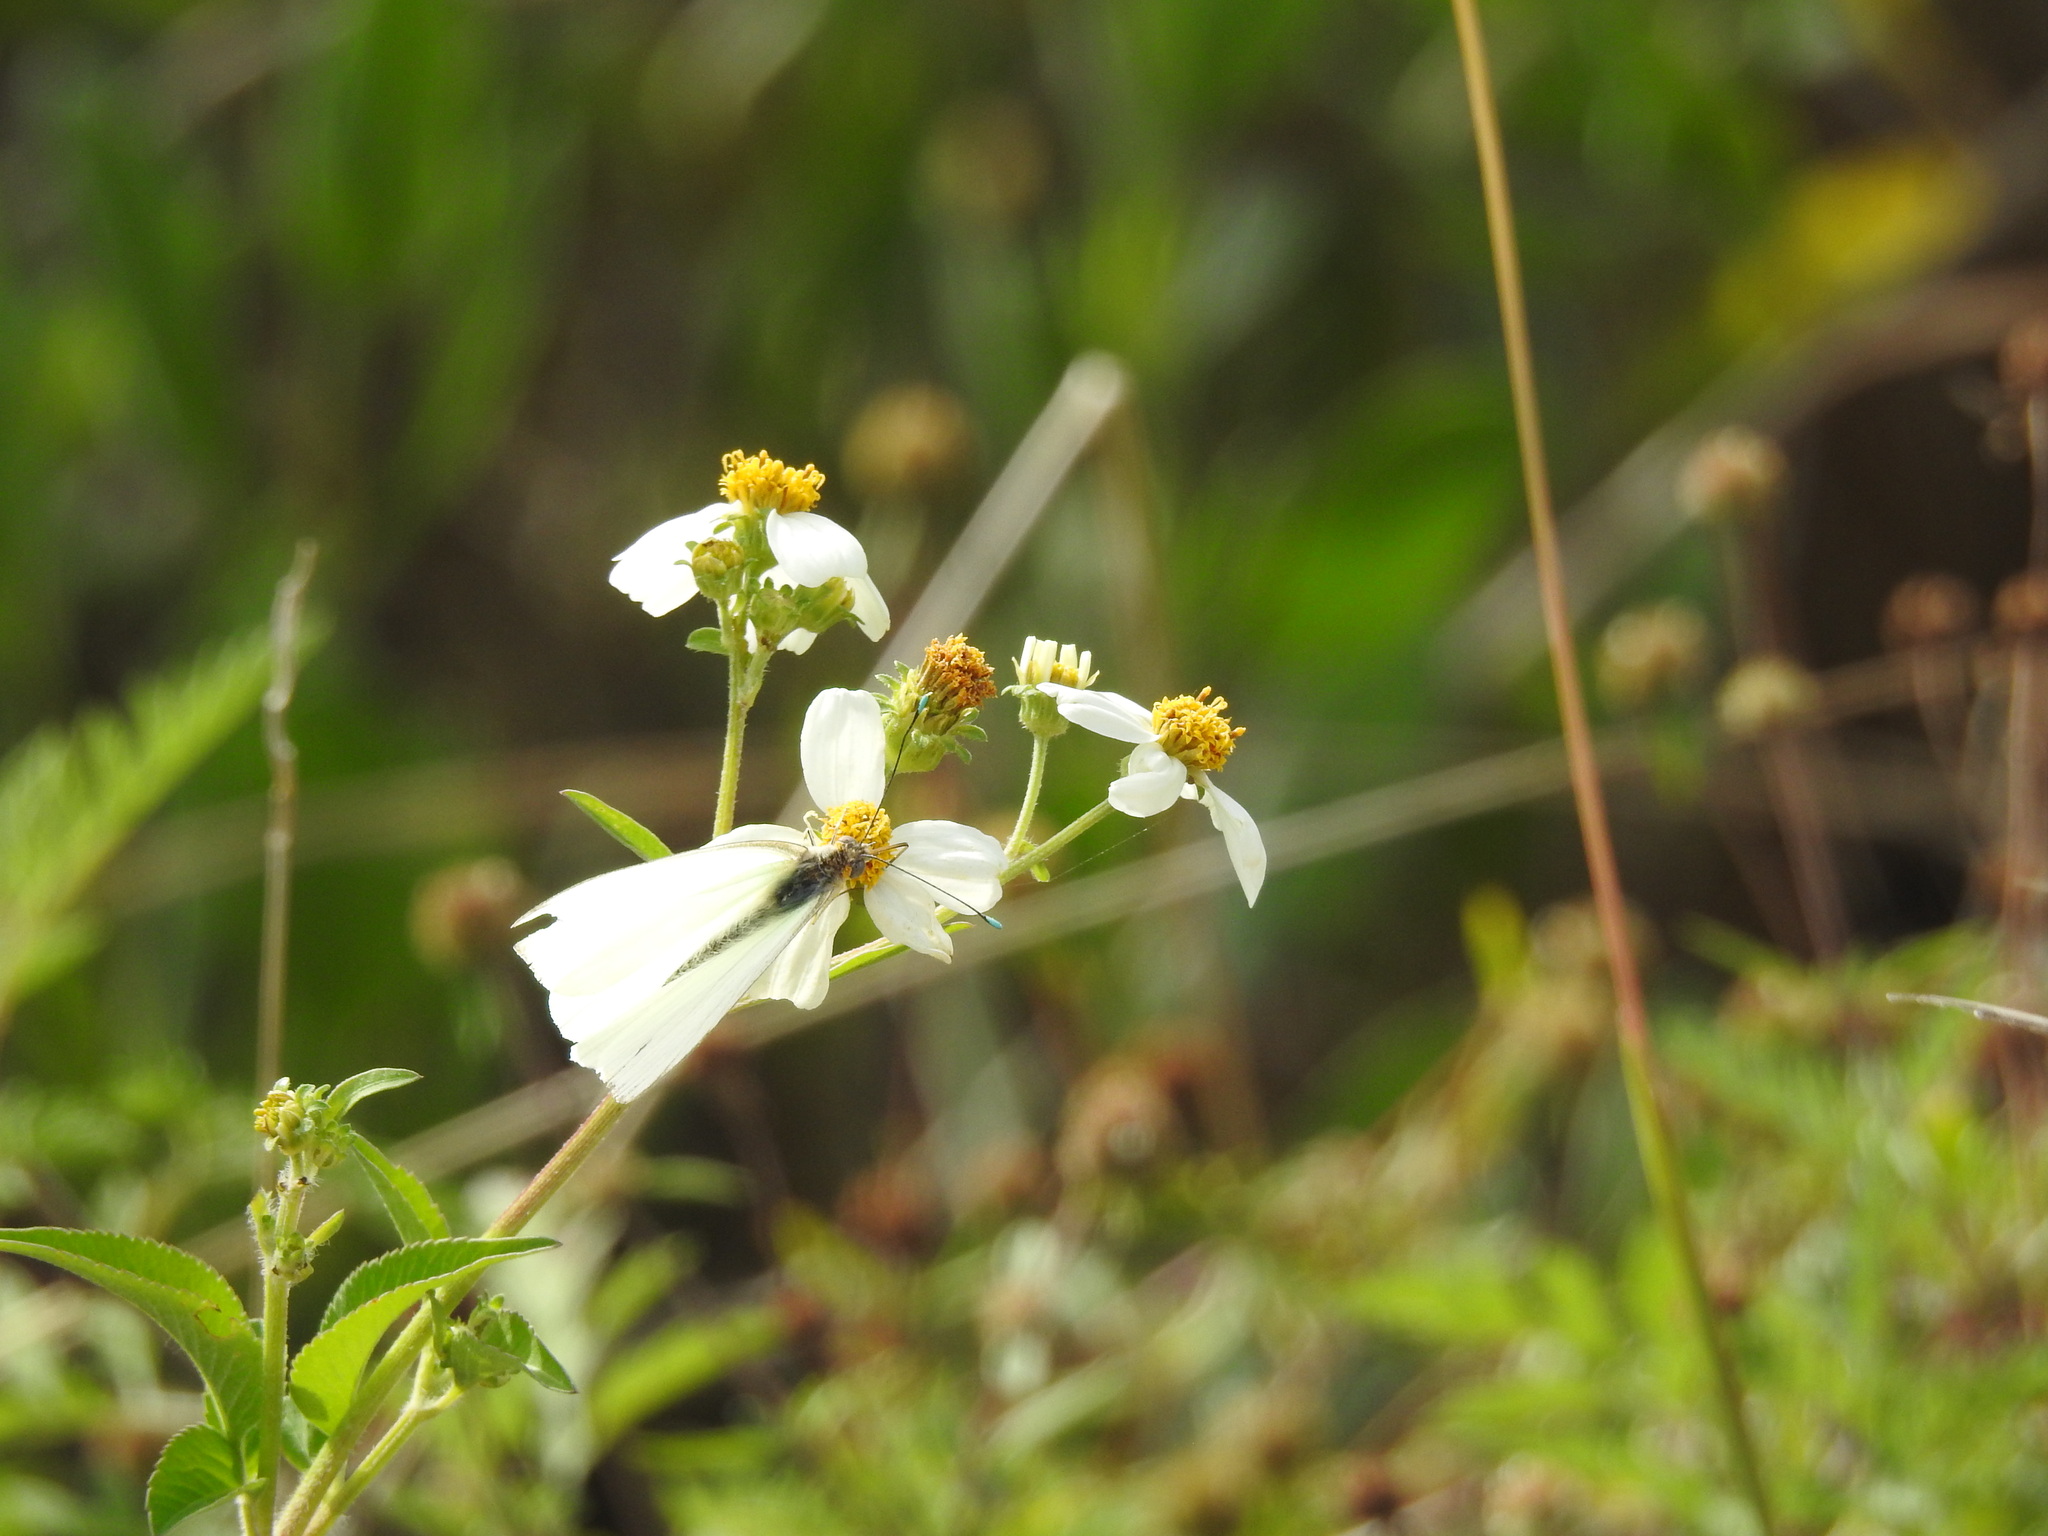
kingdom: Animalia
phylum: Arthropoda
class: Insecta
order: Lepidoptera
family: Pieridae
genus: Ascia
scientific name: Ascia monuste
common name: Great southern white
